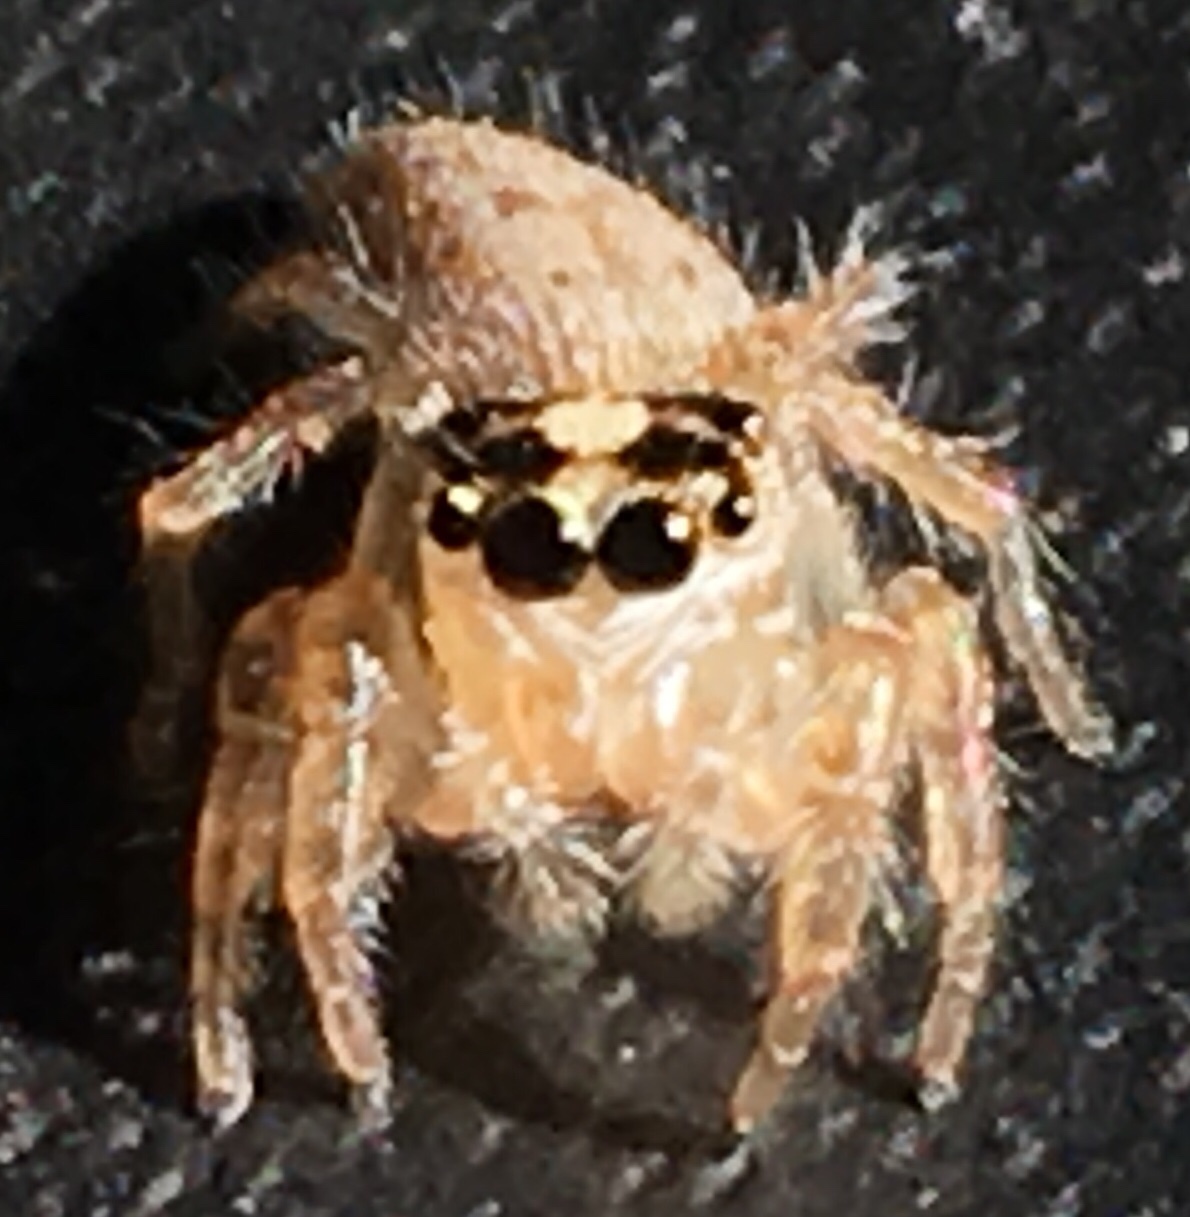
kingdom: Animalia
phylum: Arthropoda
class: Arachnida
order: Araneae
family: Salticidae
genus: Colonus
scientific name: Colonus hesperus
